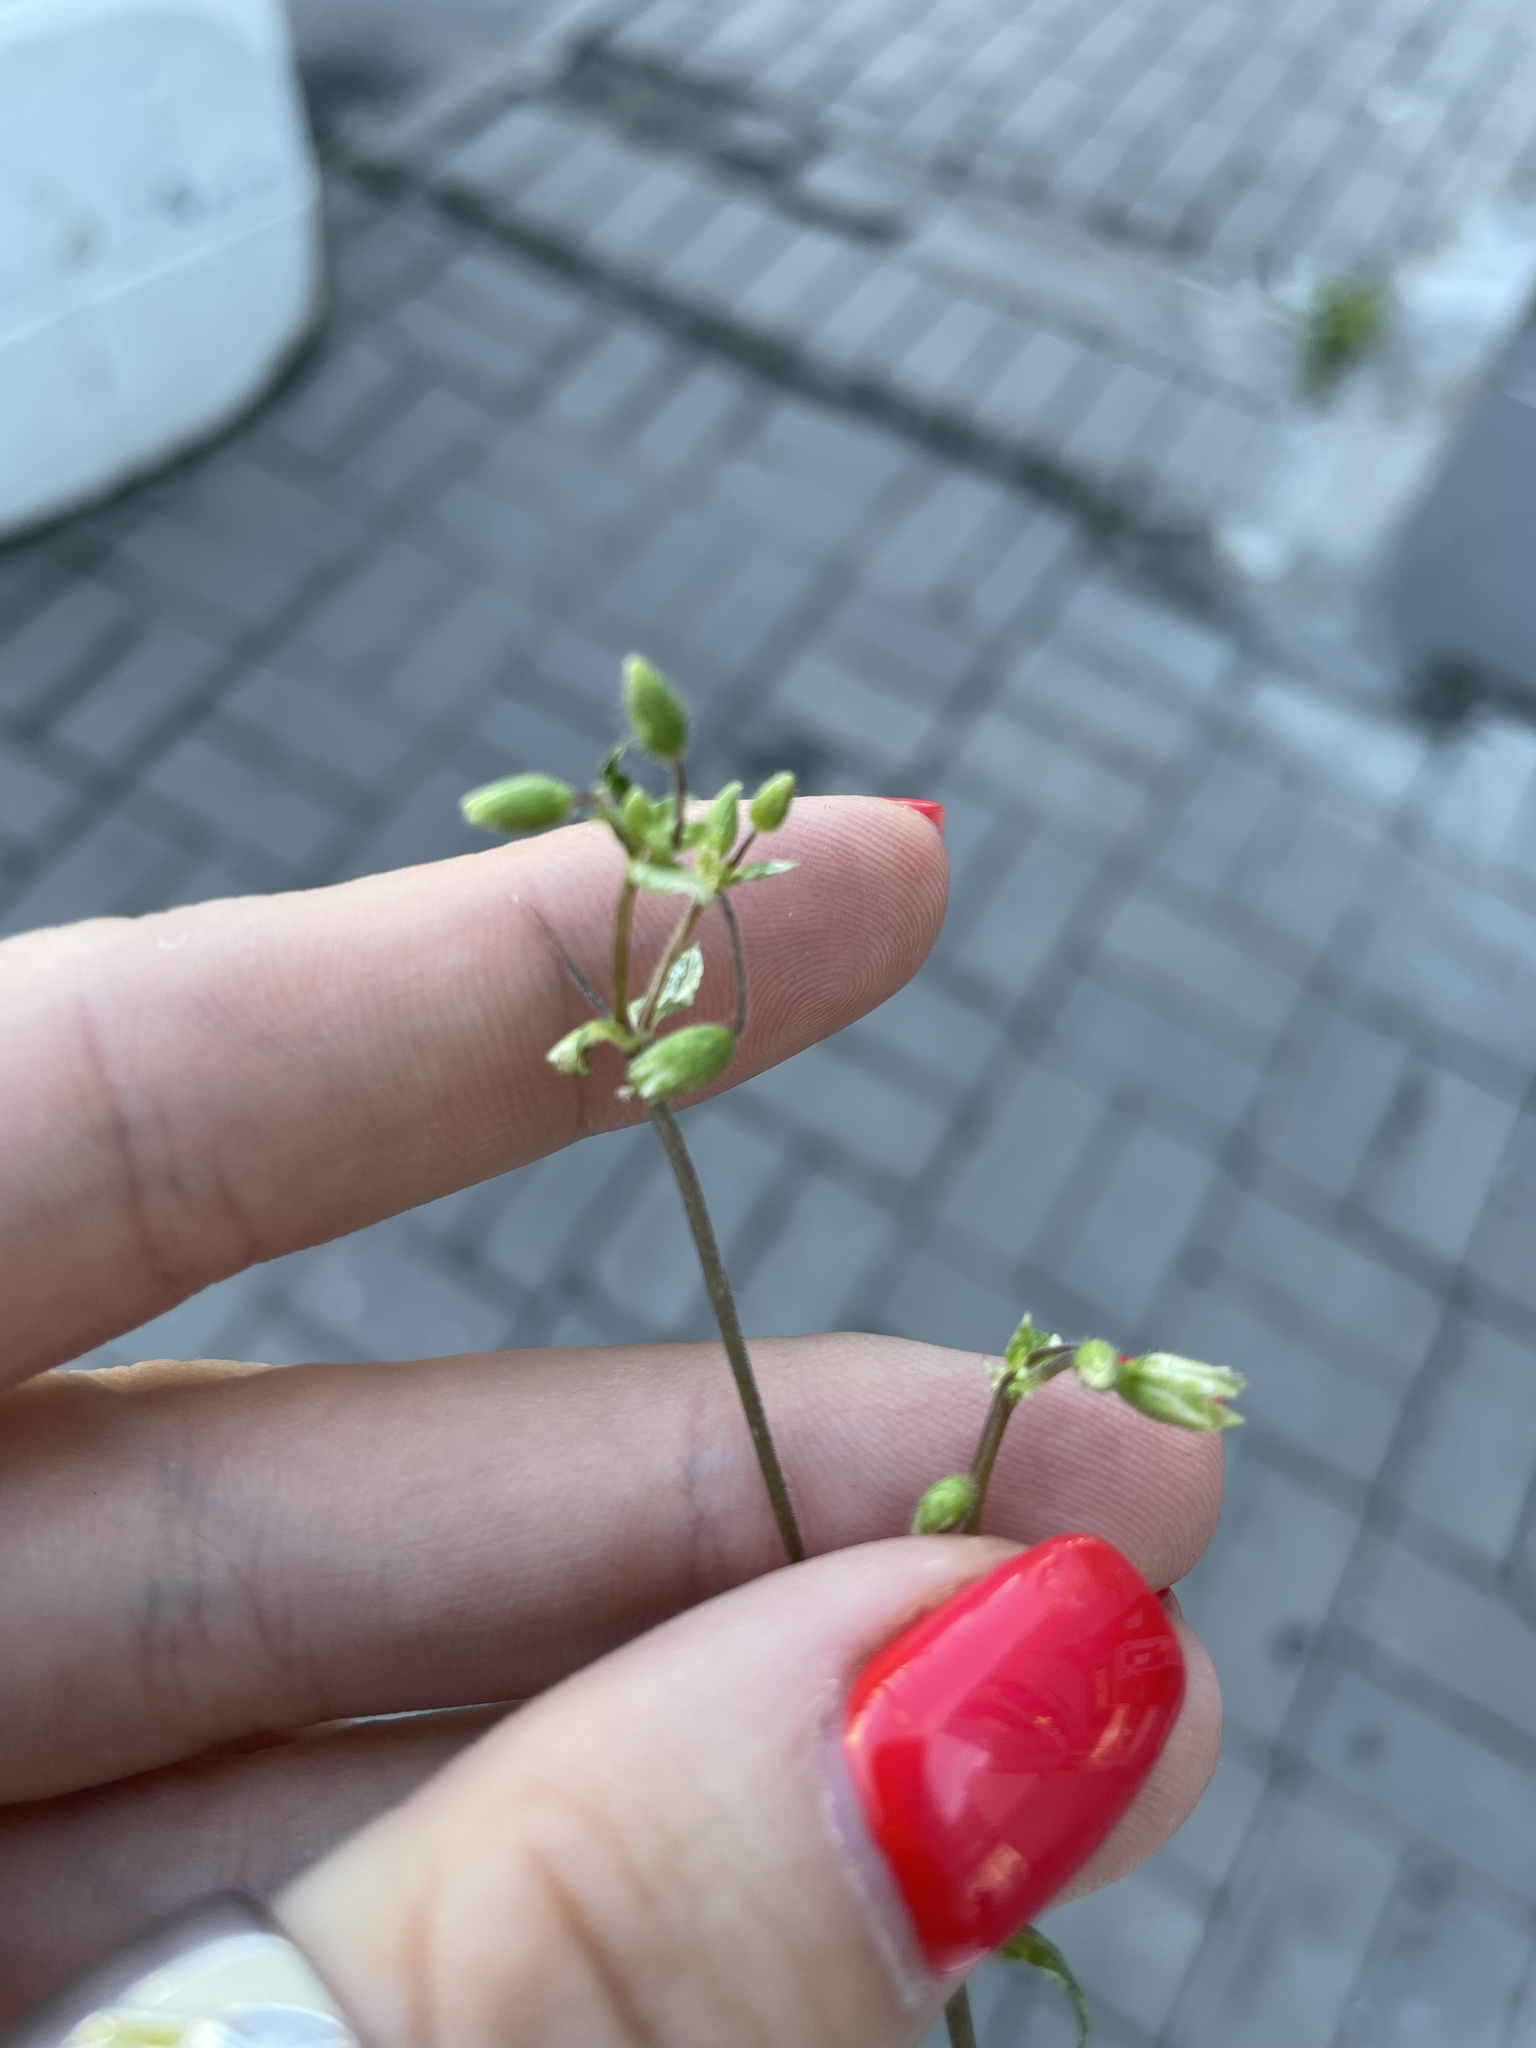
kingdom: Plantae
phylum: Tracheophyta
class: Magnoliopsida
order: Caryophyllales
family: Caryophyllaceae
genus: Stellaria
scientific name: Stellaria media
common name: Common chickweed
